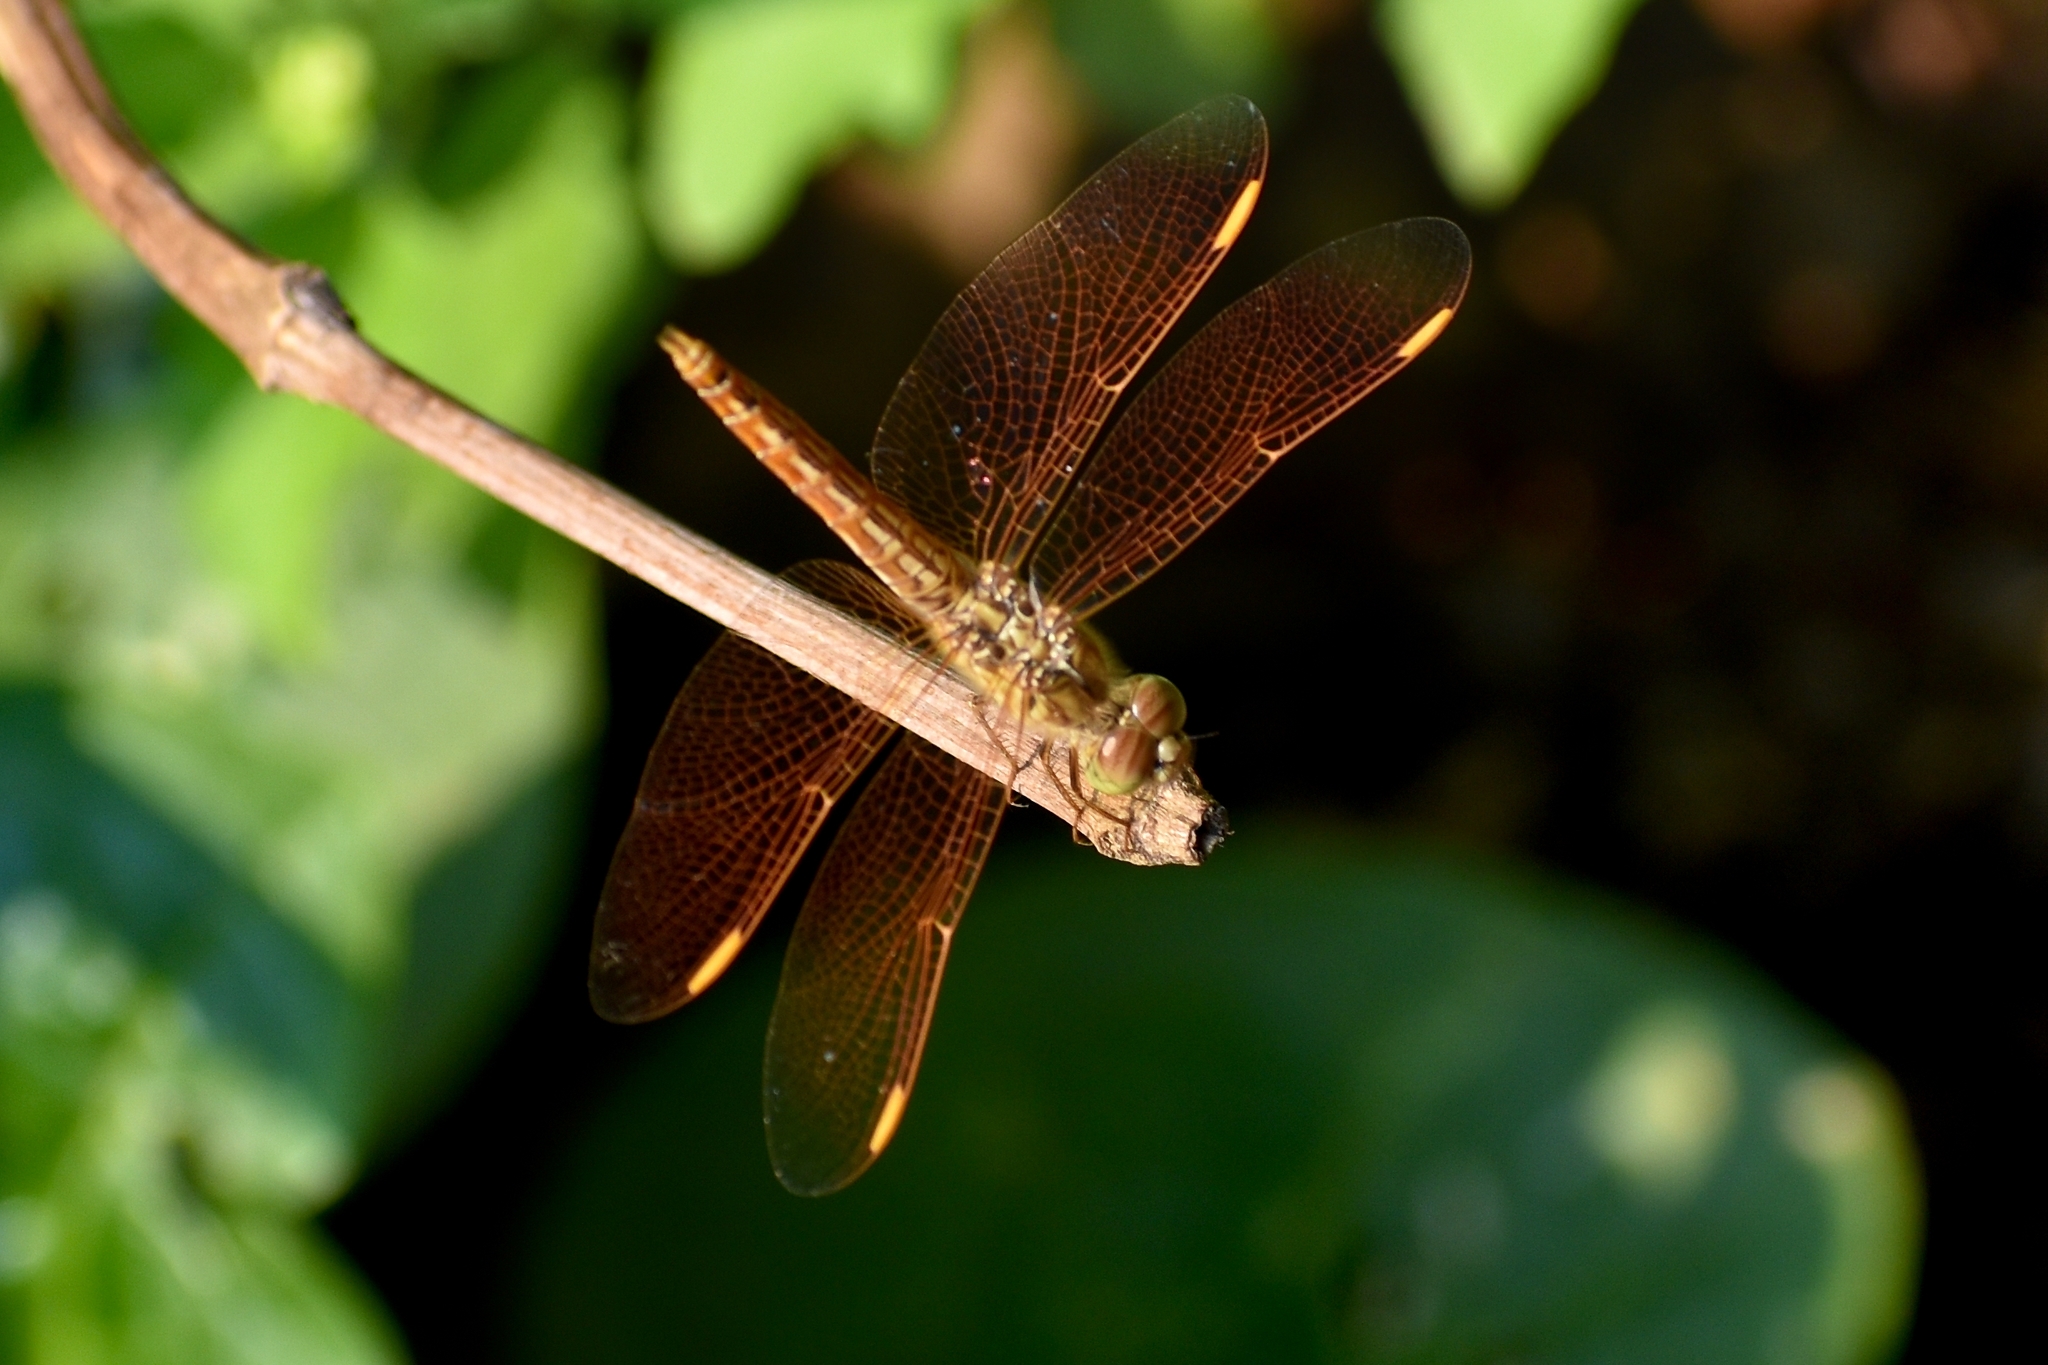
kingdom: Animalia
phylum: Arthropoda
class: Insecta
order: Odonata
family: Libellulidae
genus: Brachythemis
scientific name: Brachythemis contaminata
